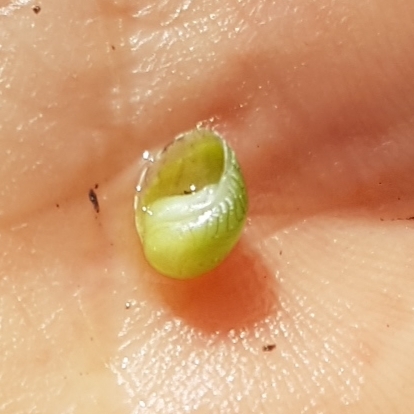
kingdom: Animalia
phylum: Mollusca
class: Gastropoda
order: Cycloneritida
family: Neritidae
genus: Smaragdia
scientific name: Smaragdia viridis
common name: Emerald nerite
